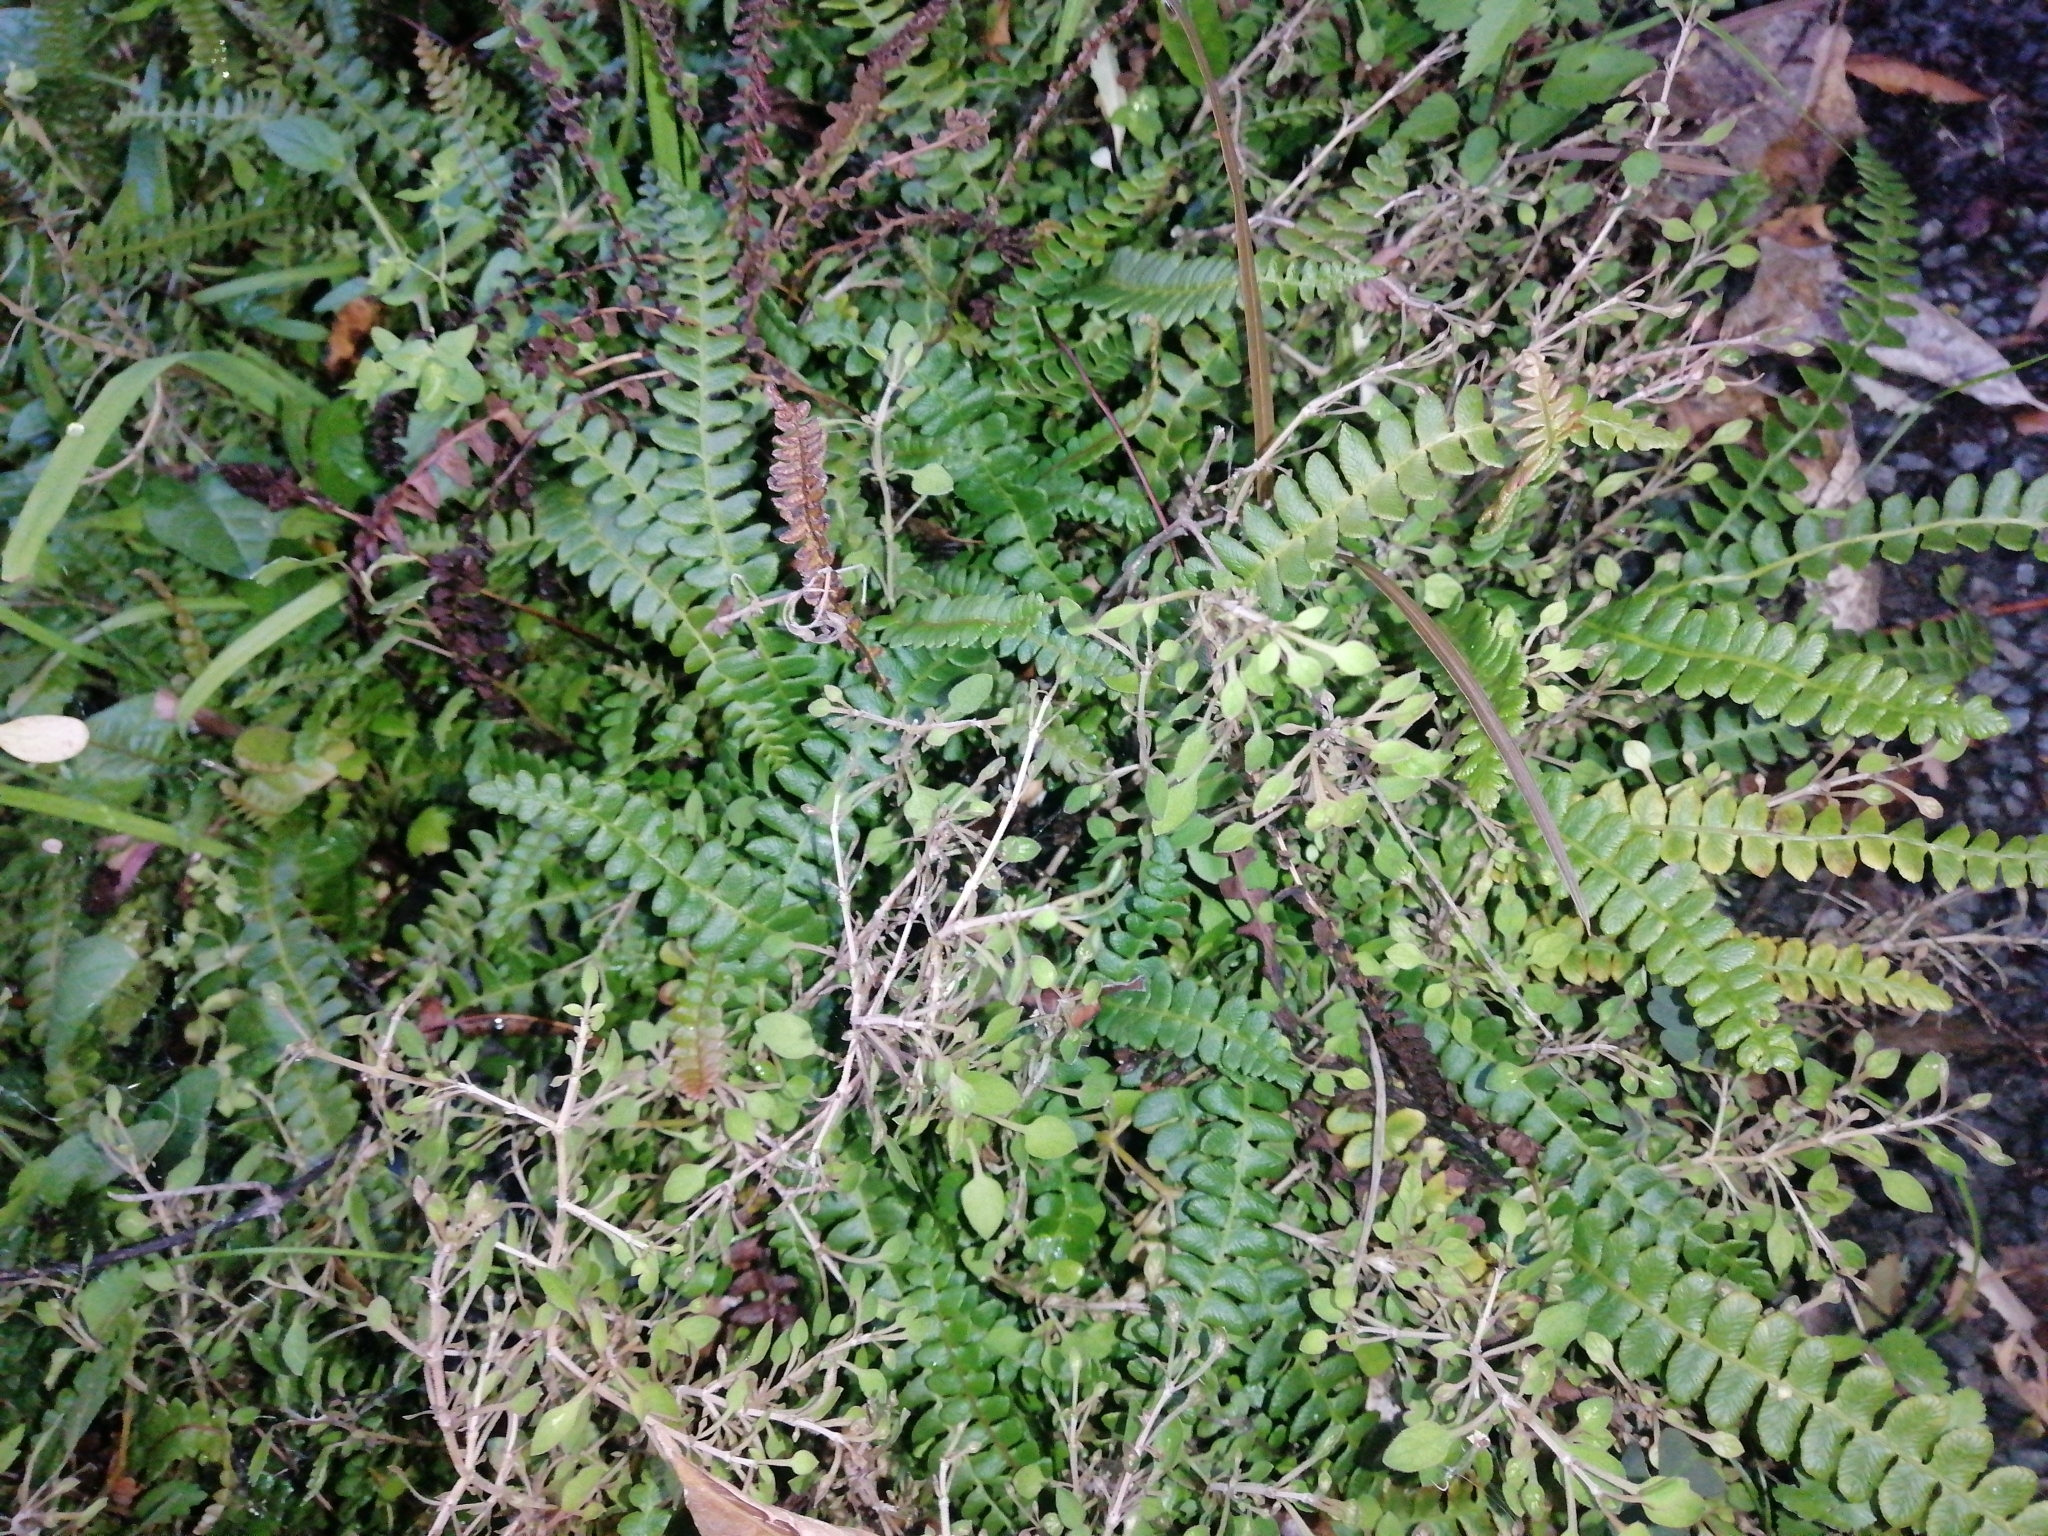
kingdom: Plantae
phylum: Tracheophyta
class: Polypodiopsida
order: Polypodiales
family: Blechnaceae
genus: Austroblechnum
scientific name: Austroblechnum penna-marina
